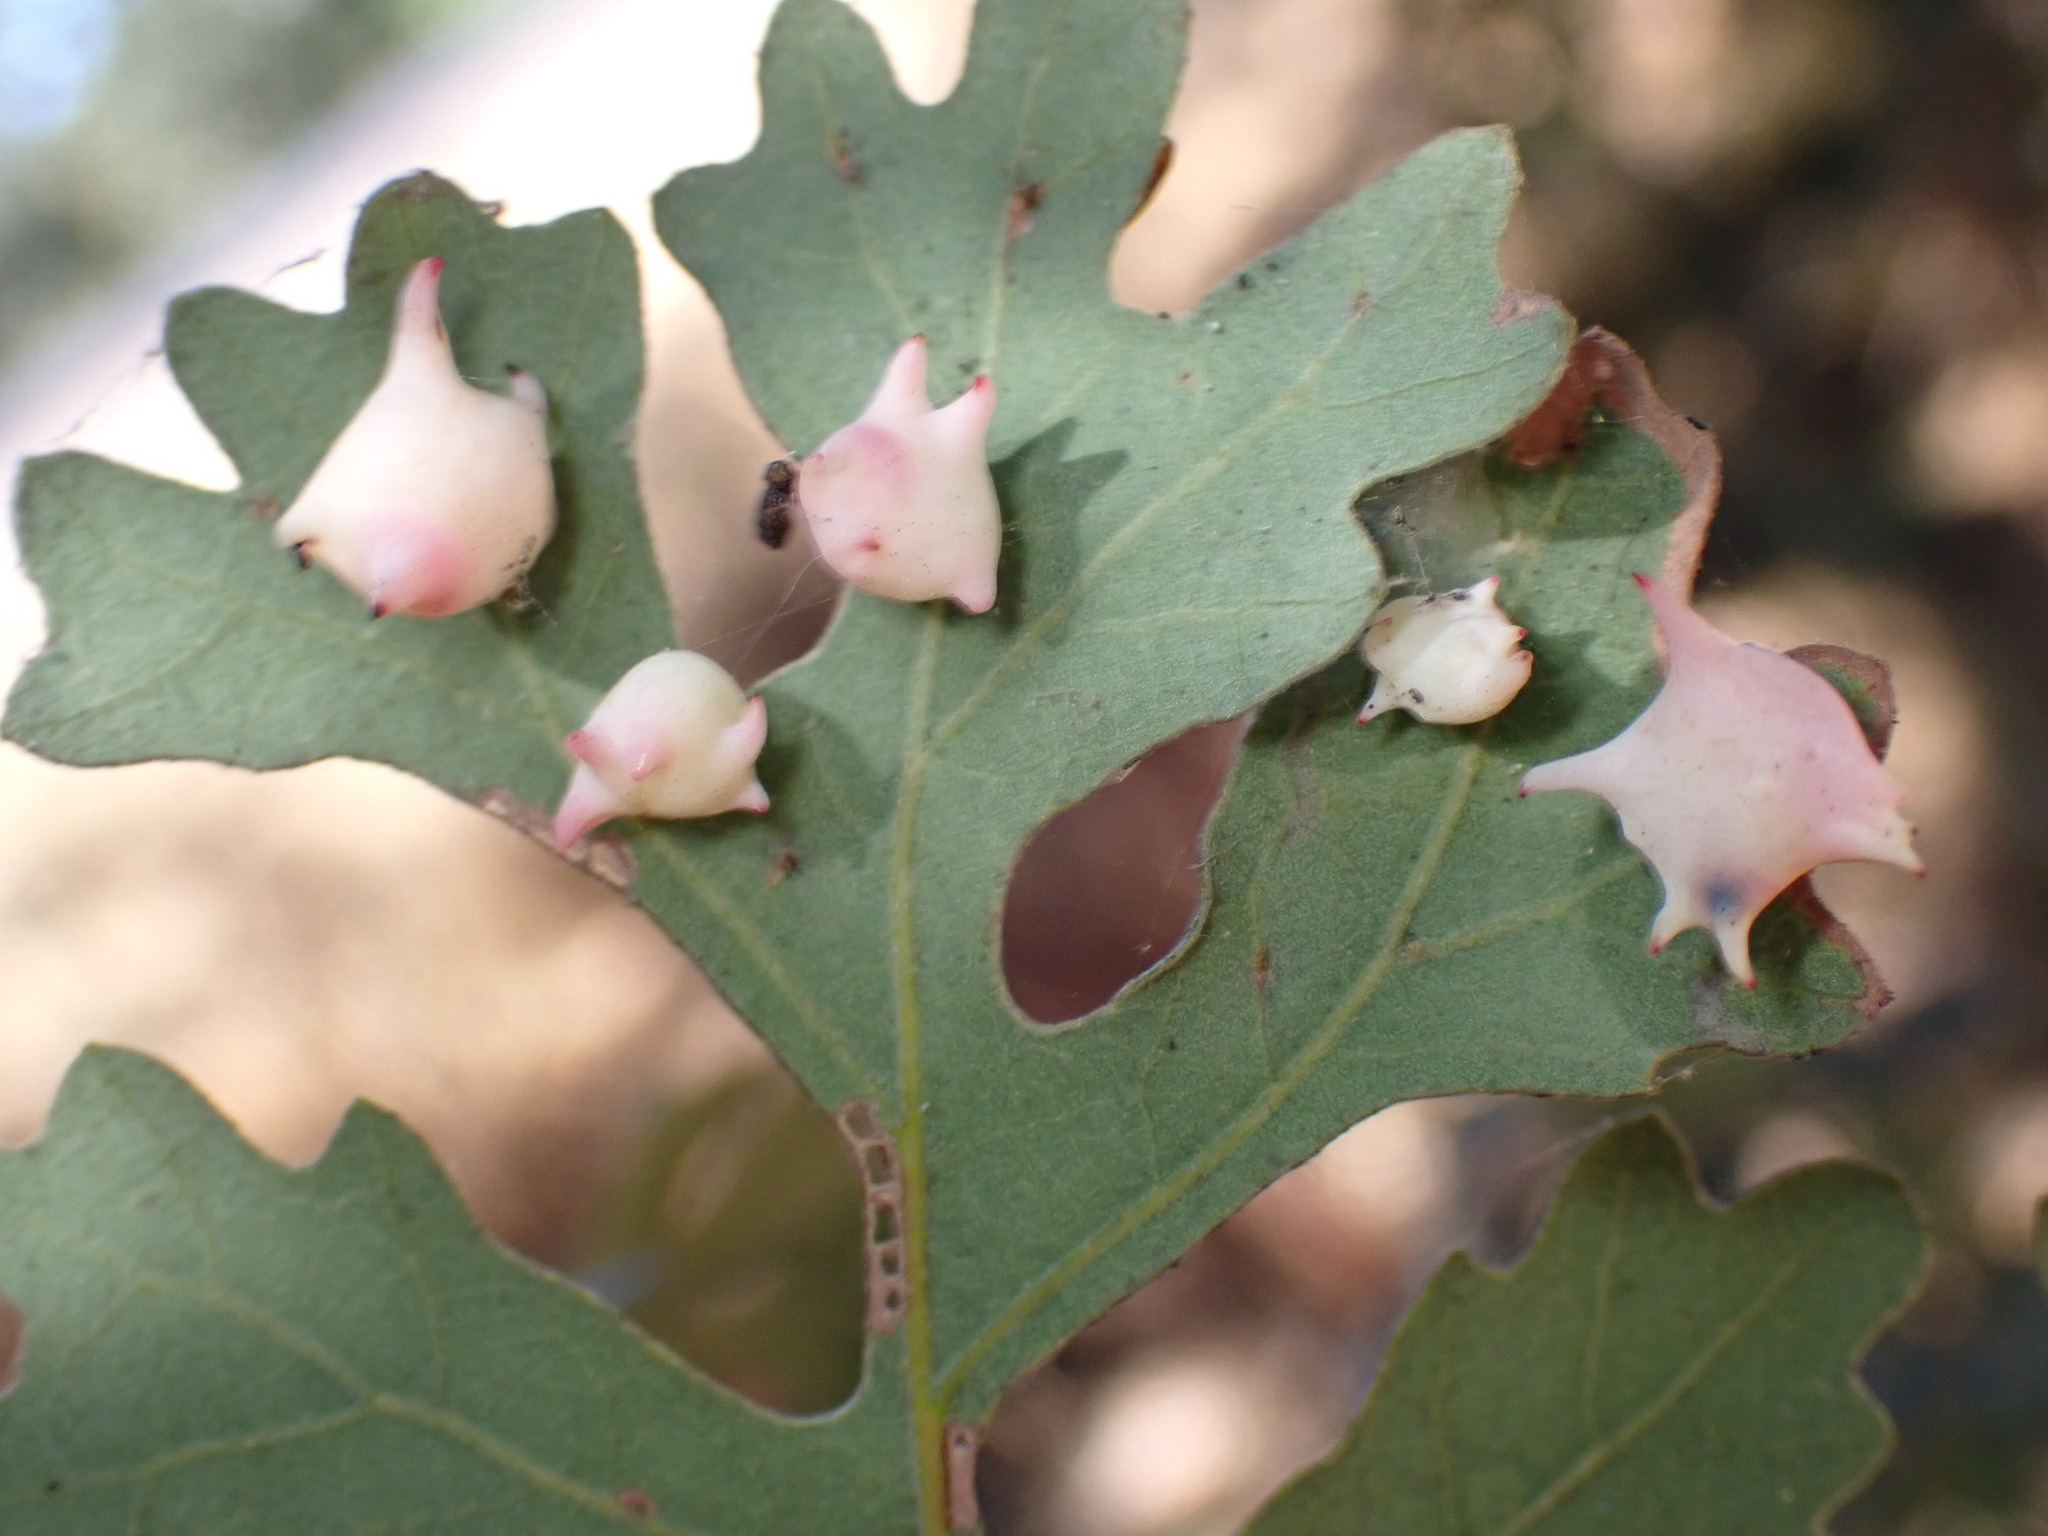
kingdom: Animalia
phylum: Arthropoda
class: Insecta
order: Hymenoptera
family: Cynipidae
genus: Cynips
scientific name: Cynips douglasi
